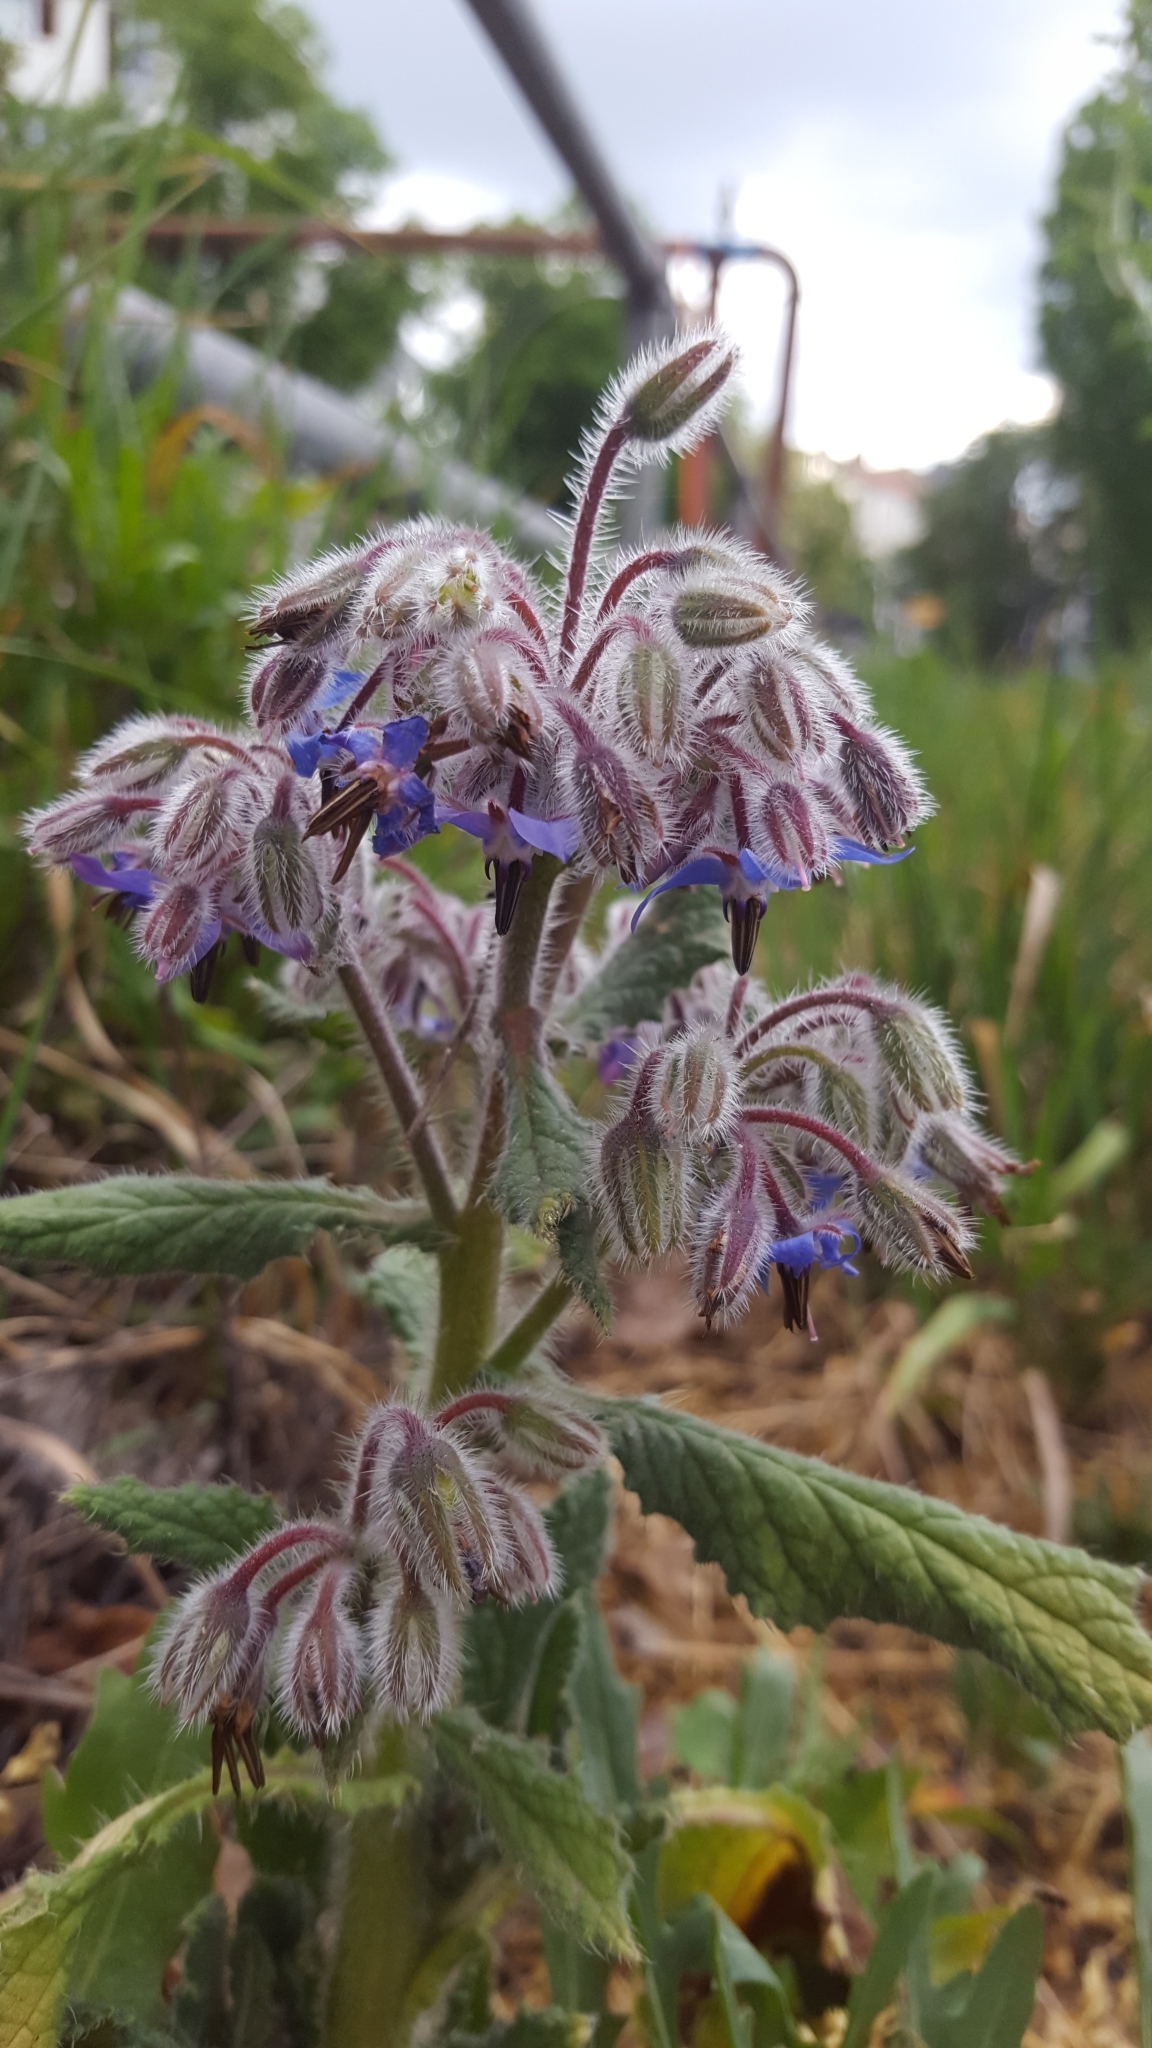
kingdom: Plantae
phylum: Tracheophyta
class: Magnoliopsida
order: Boraginales
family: Boraginaceae
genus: Borago
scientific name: Borago officinalis
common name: Borage
